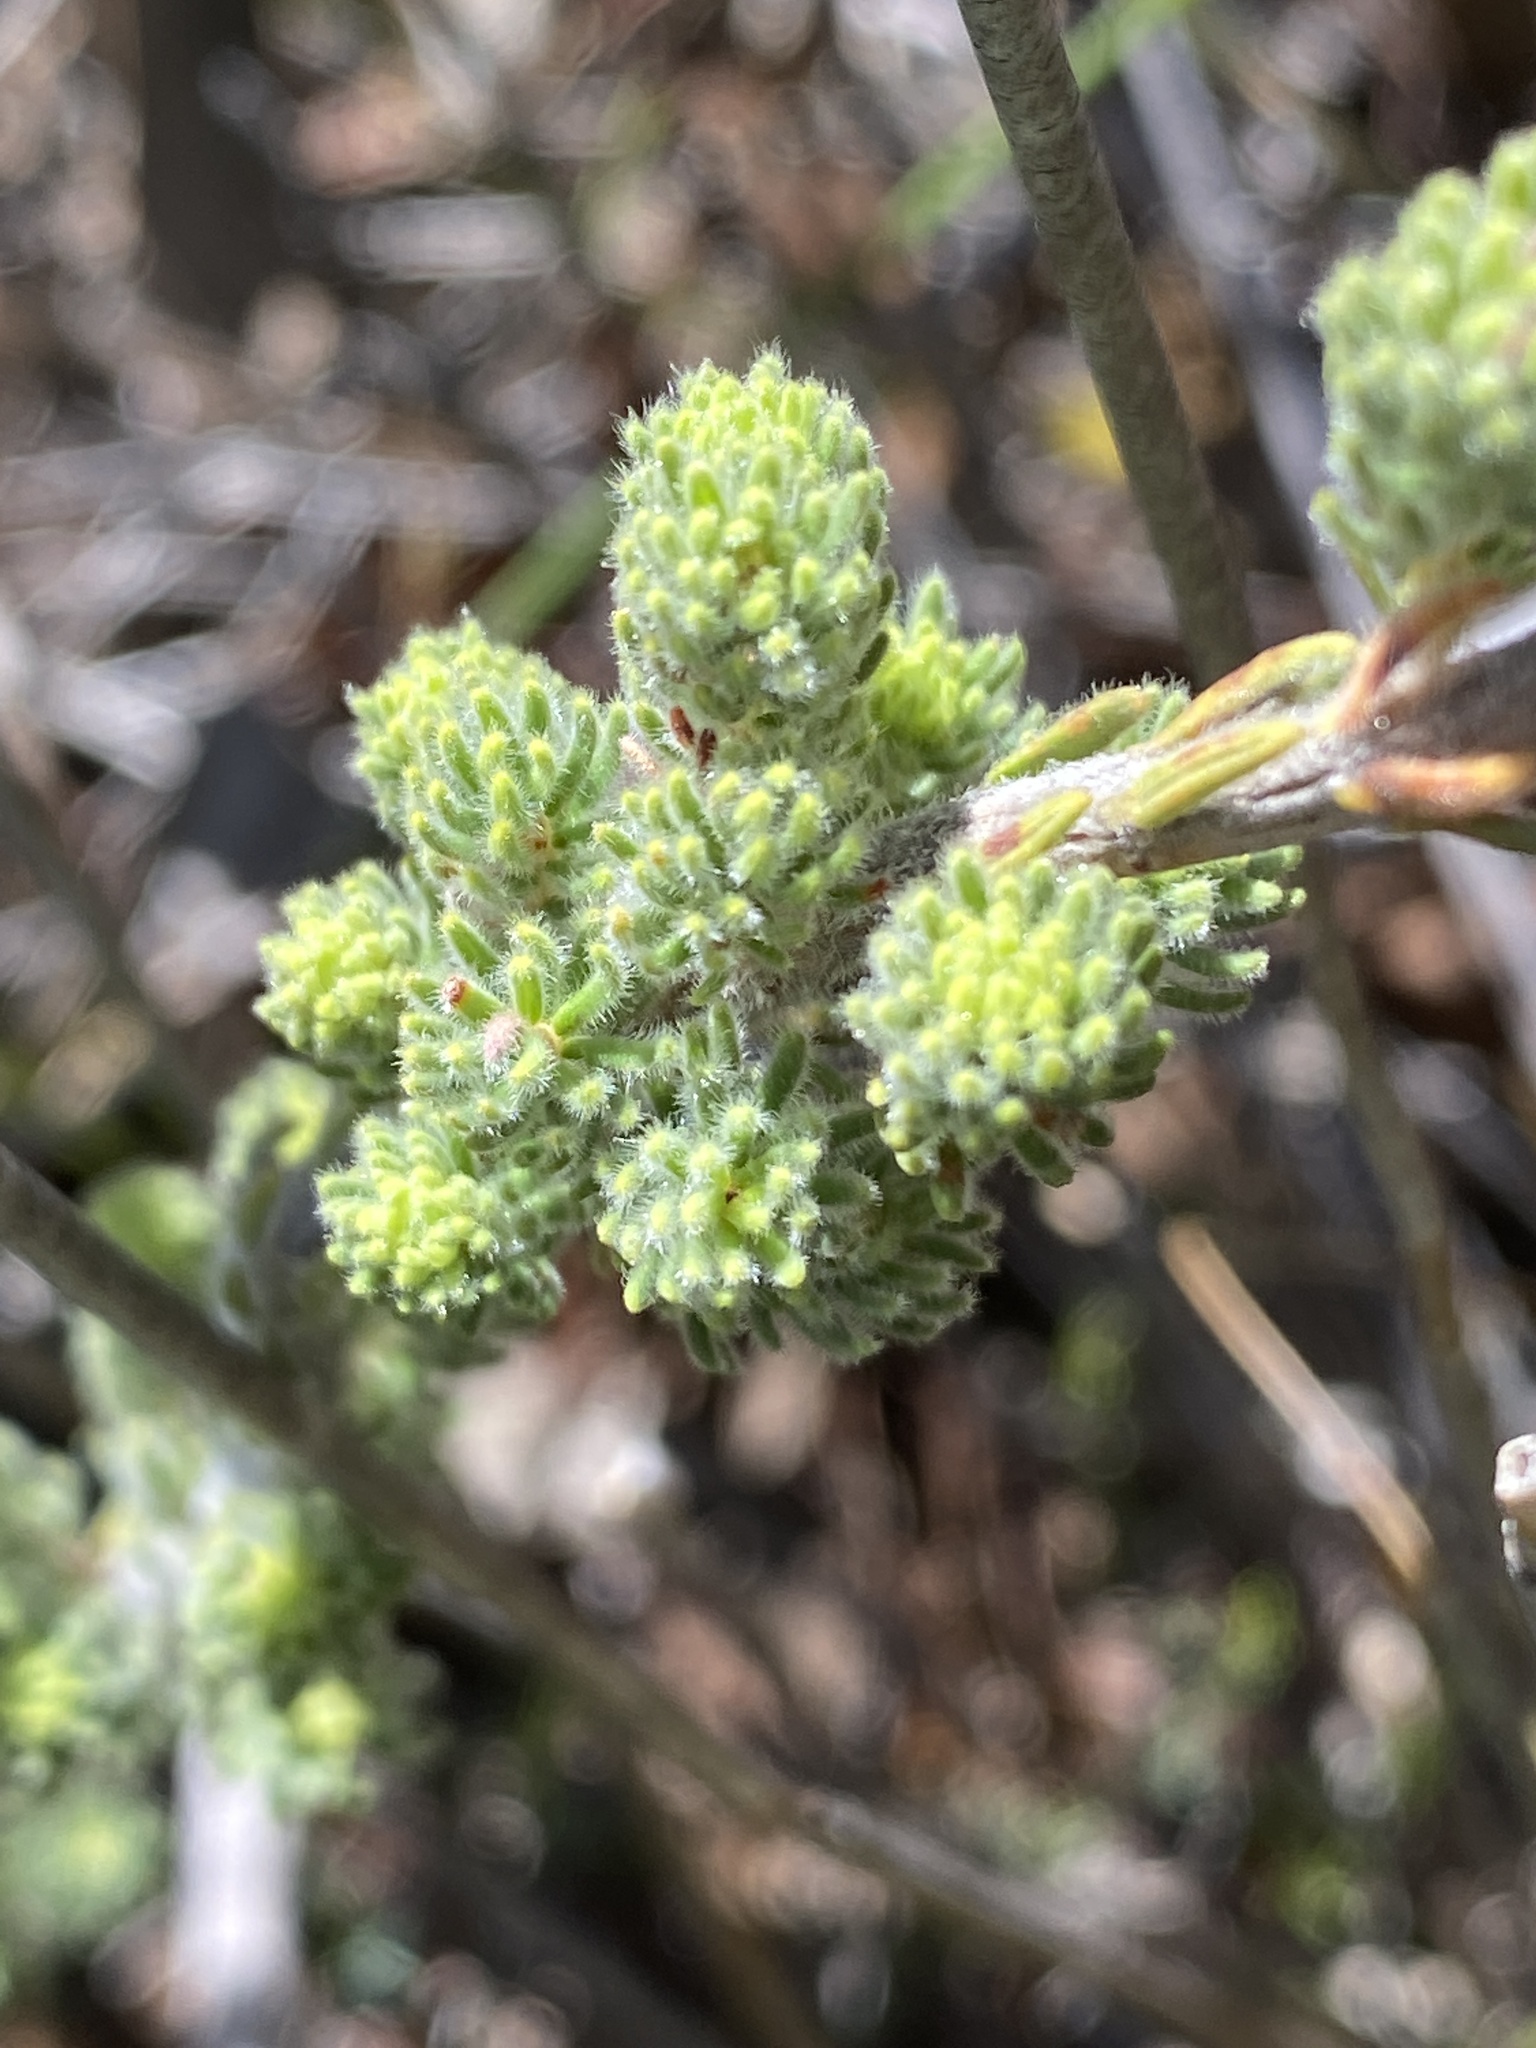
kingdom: Plantae
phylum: Tracheophyta
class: Magnoliopsida
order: Ericales
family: Ericaceae
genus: Erica
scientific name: Erica unicolor
